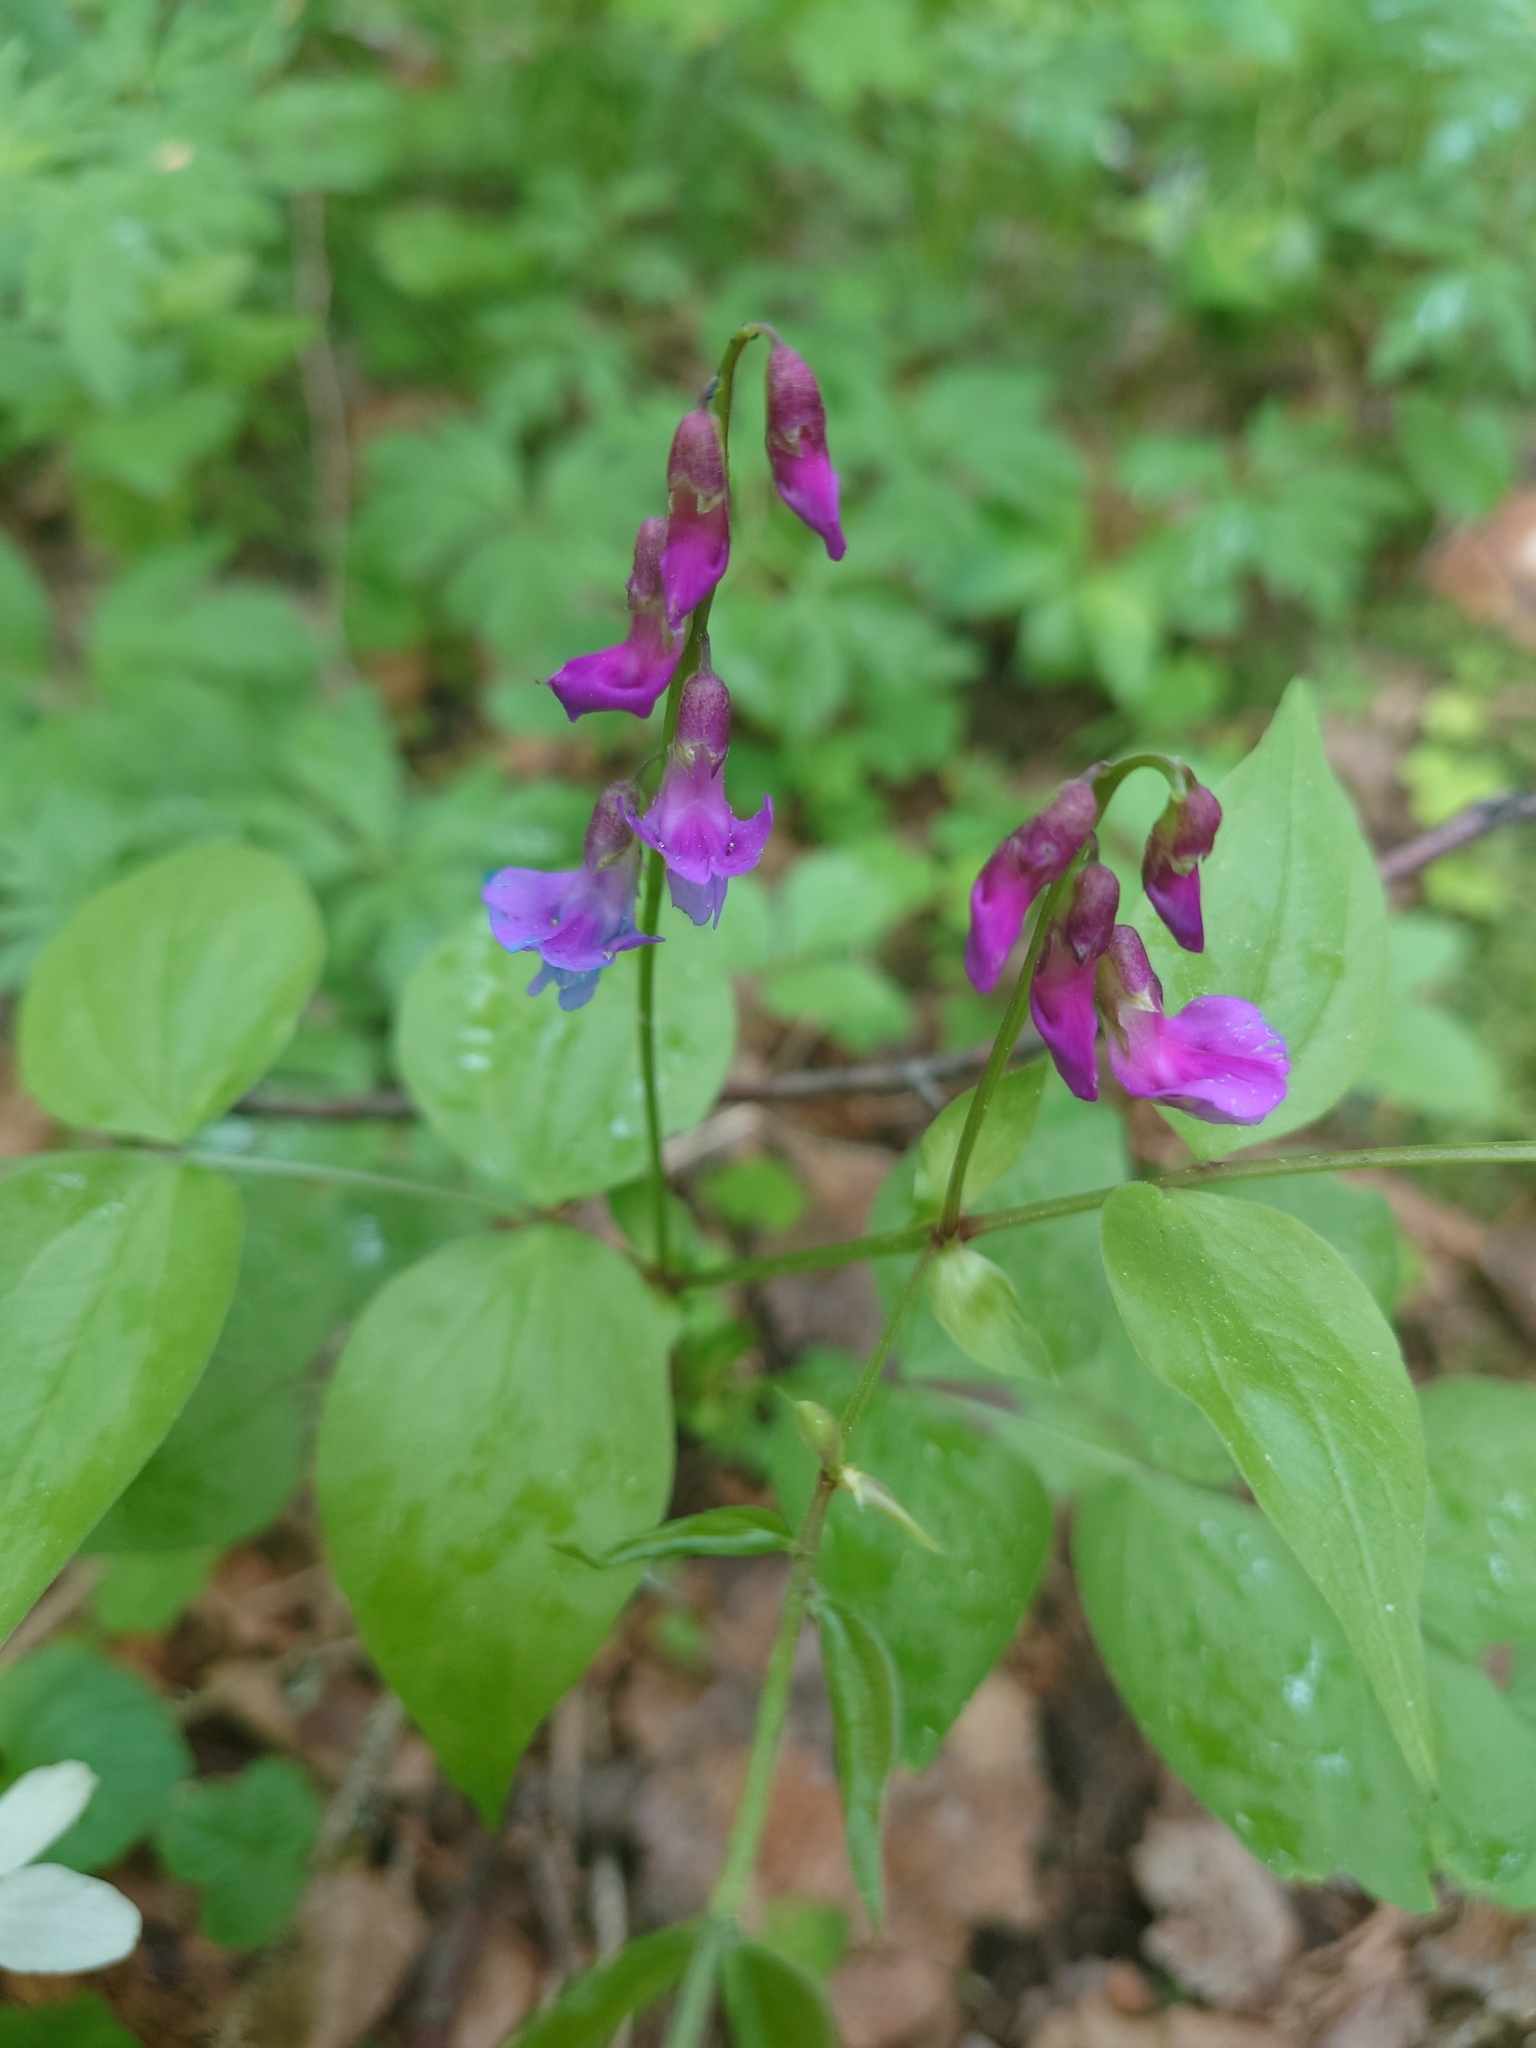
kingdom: Plantae
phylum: Tracheophyta
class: Magnoliopsida
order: Fabales
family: Fabaceae
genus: Lathyrus
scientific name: Lathyrus vernus
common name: Spring pea
